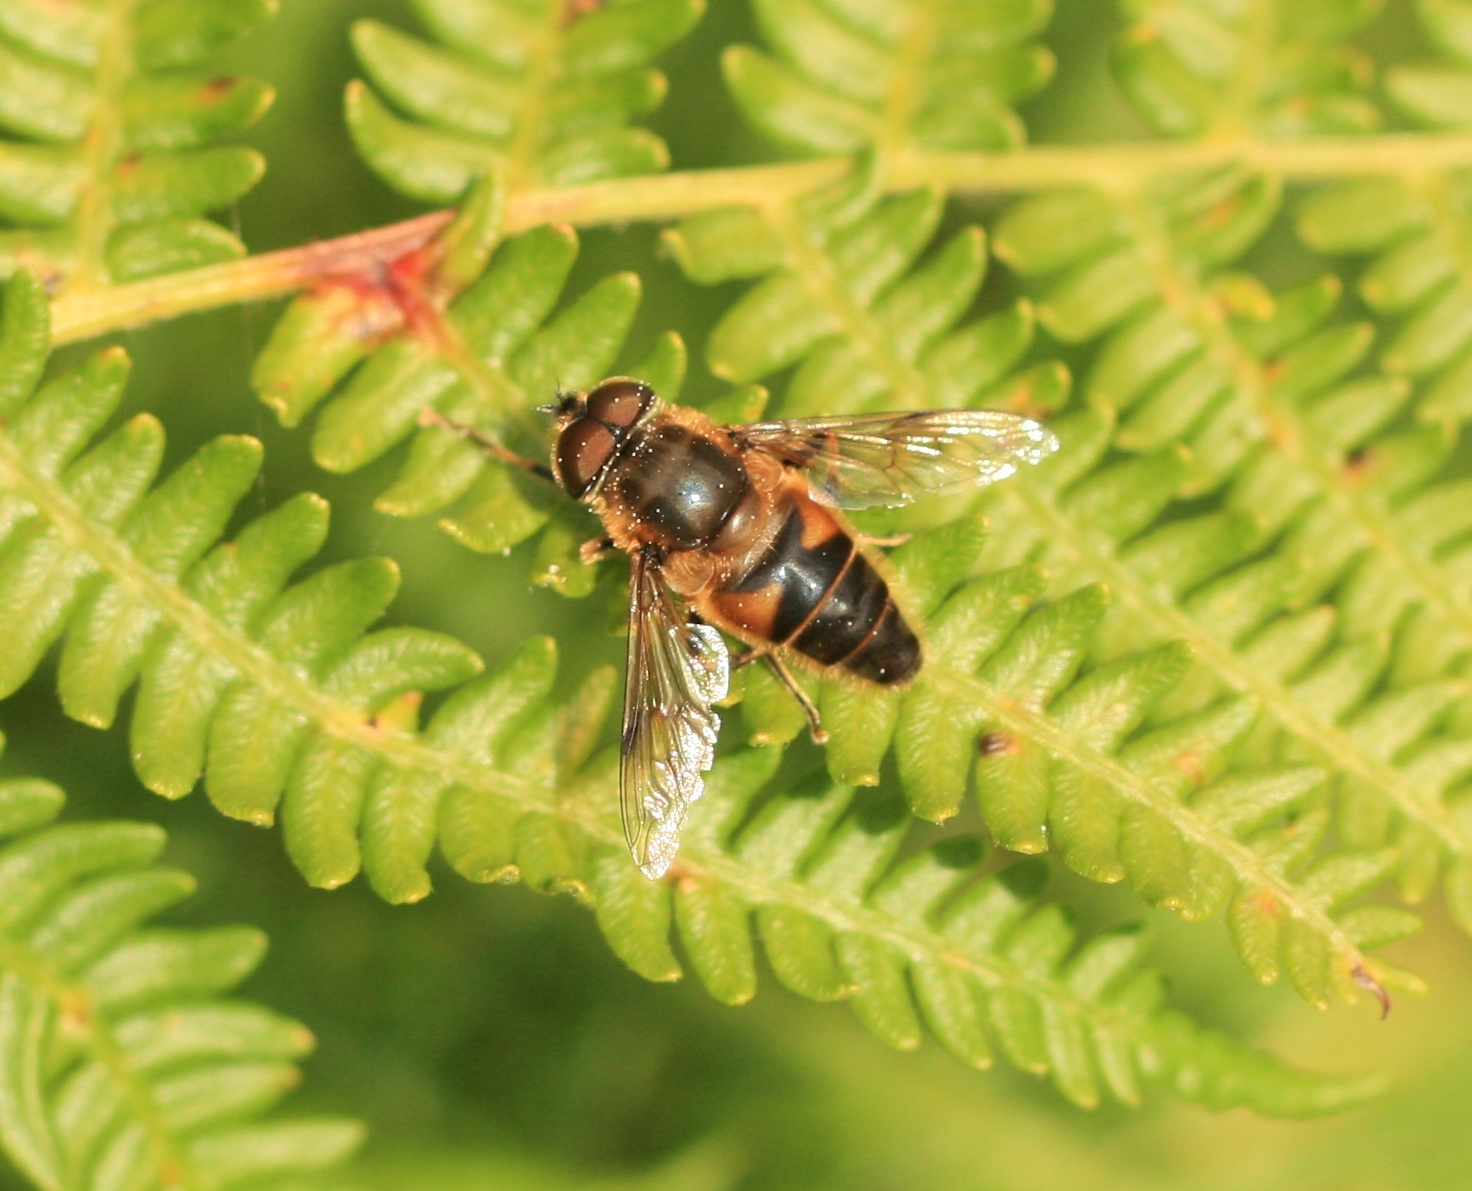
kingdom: Animalia
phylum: Arthropoda
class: Insecta
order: Diptera
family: Syrphidae
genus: Eristalis
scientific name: Eristalis pertinax
